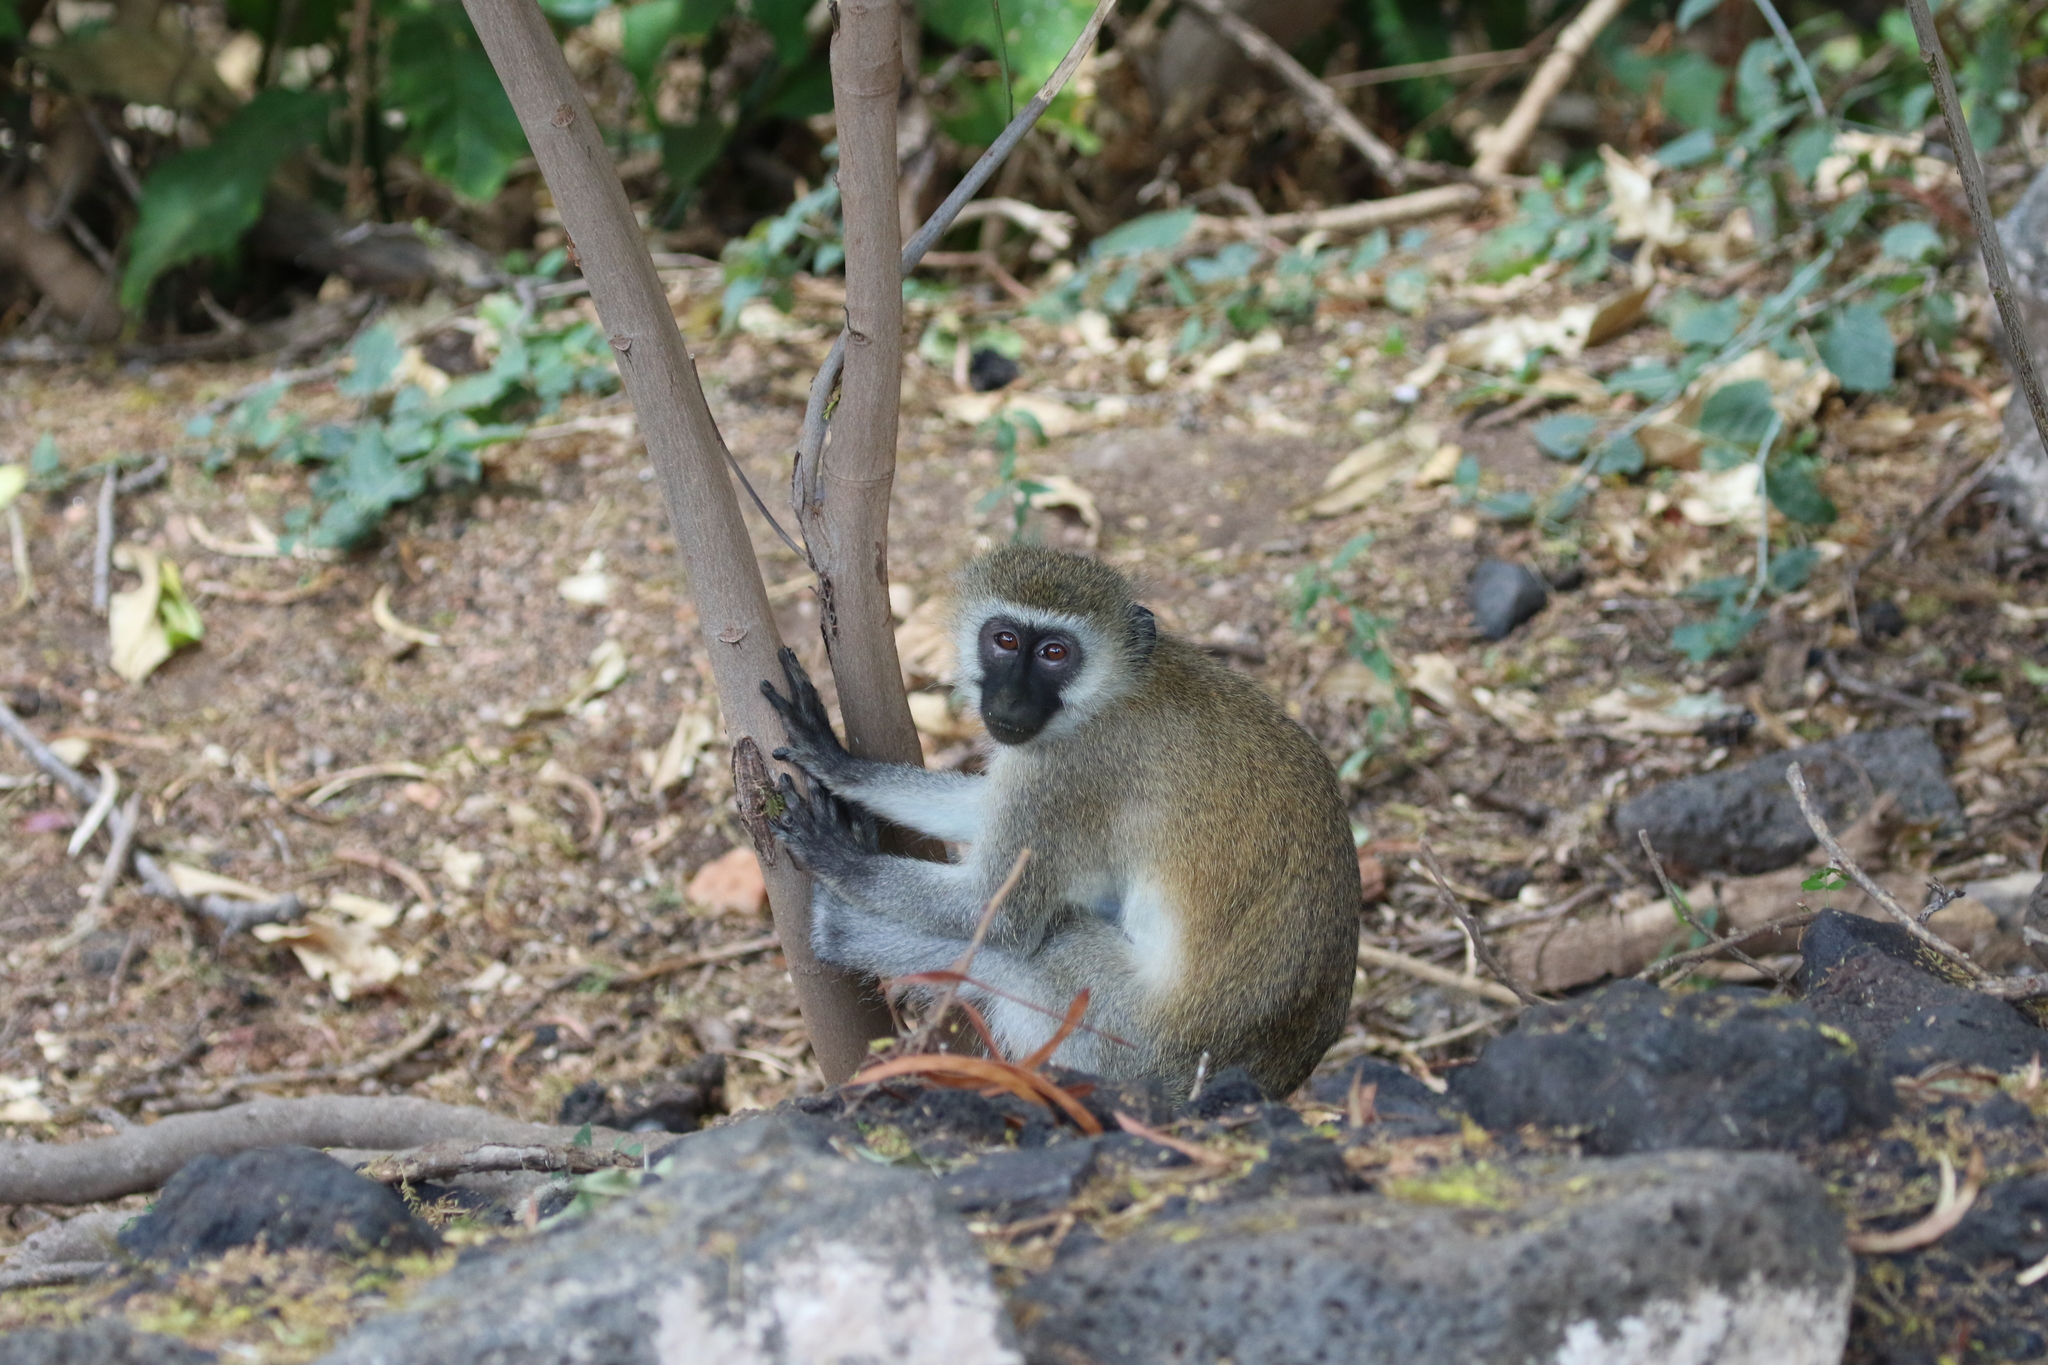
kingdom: Animalia
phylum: Chordata
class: Mammalia
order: Primates
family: Cercopithecidae
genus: Chlorocebus
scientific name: Chlorocebus pygerythrus
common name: Vervet monkey
